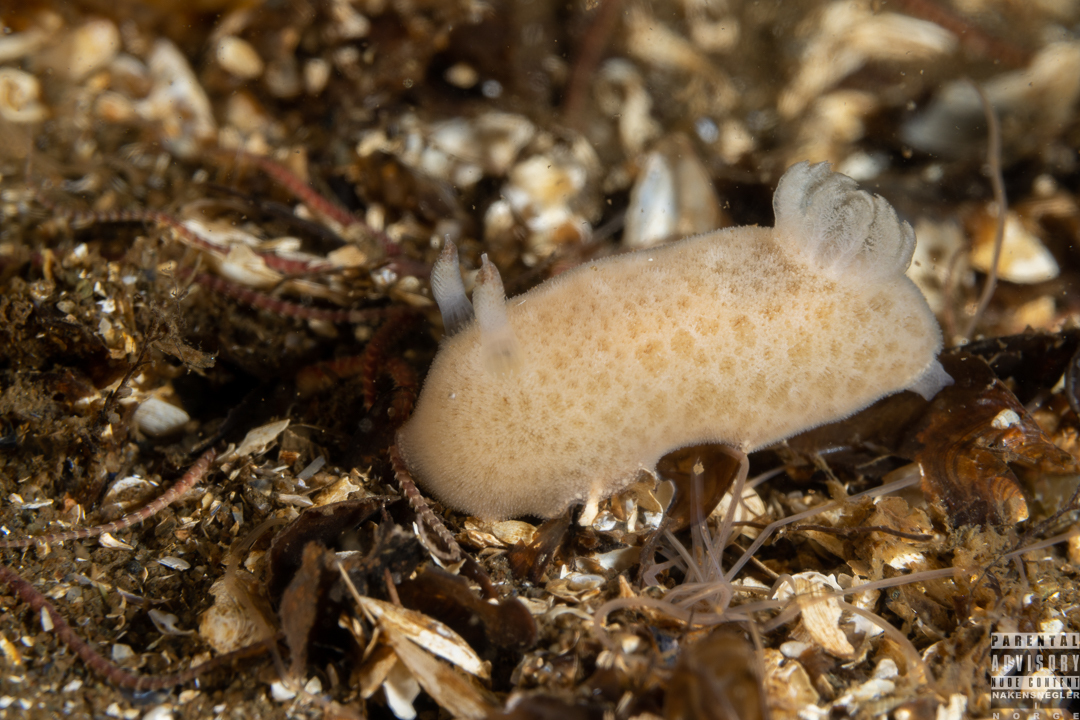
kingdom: Animalia
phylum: Mollusca
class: Gastropoda
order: Nudibranchia
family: Discodorididae
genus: Jorunna
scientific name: Jorunna tomentosa
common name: Grey sea slug
